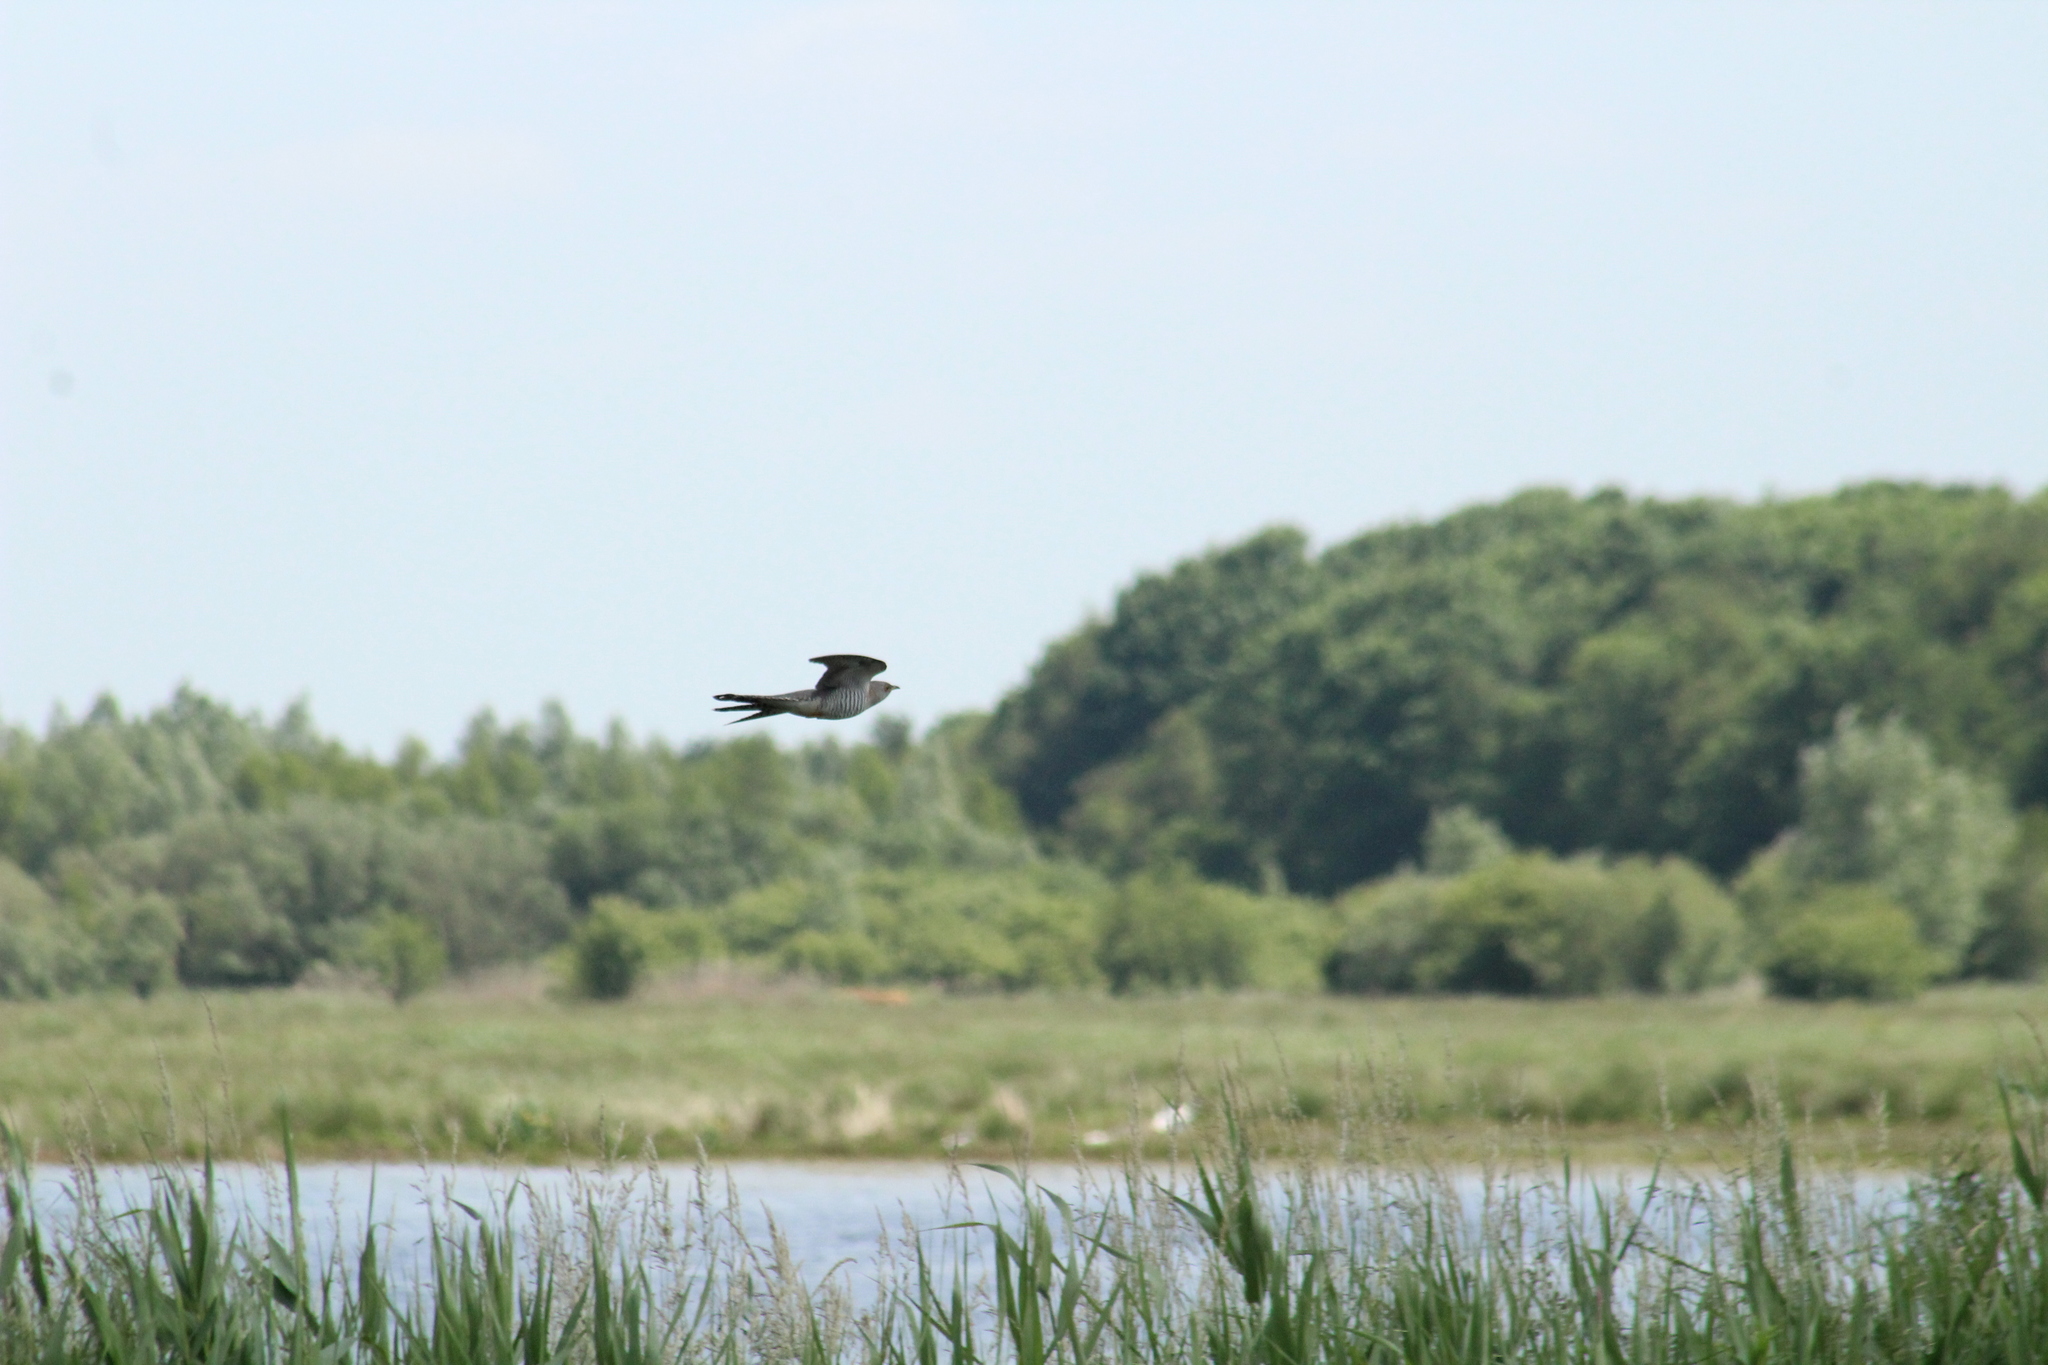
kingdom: Animalia
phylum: Chordata
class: Aves
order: Cuculiformes
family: Cuculidae
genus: Cuculus
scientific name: Cuculus canorus
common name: Common cuckoo
